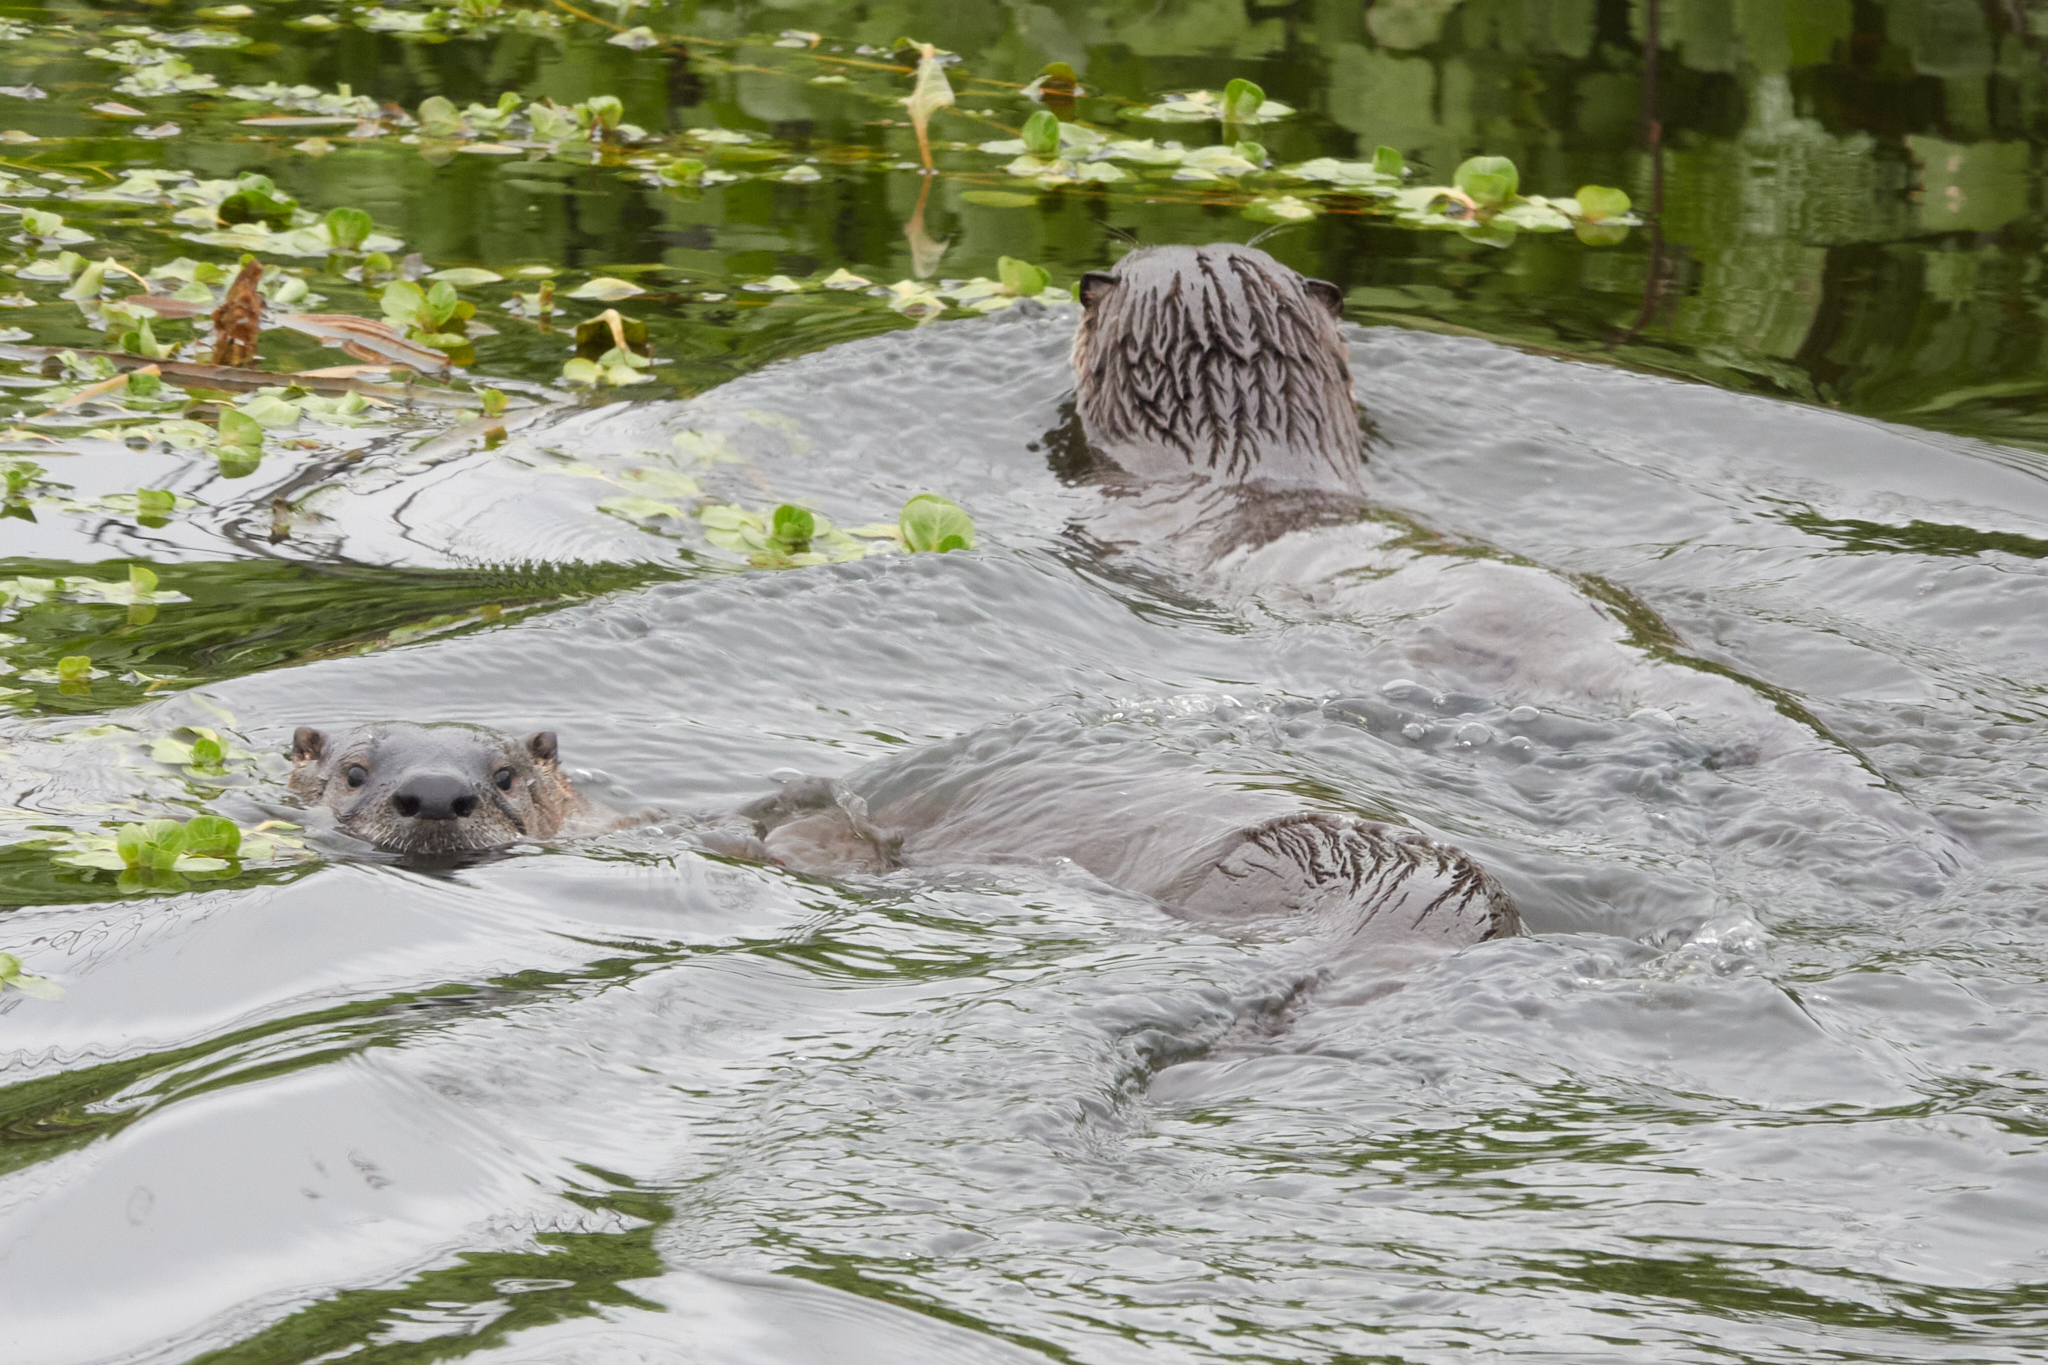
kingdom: Animalia
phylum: Chordata
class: Mammalia
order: Carnivora
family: Mustelidae
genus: Lontra
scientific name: Lontra canadensis
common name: North american river otter
